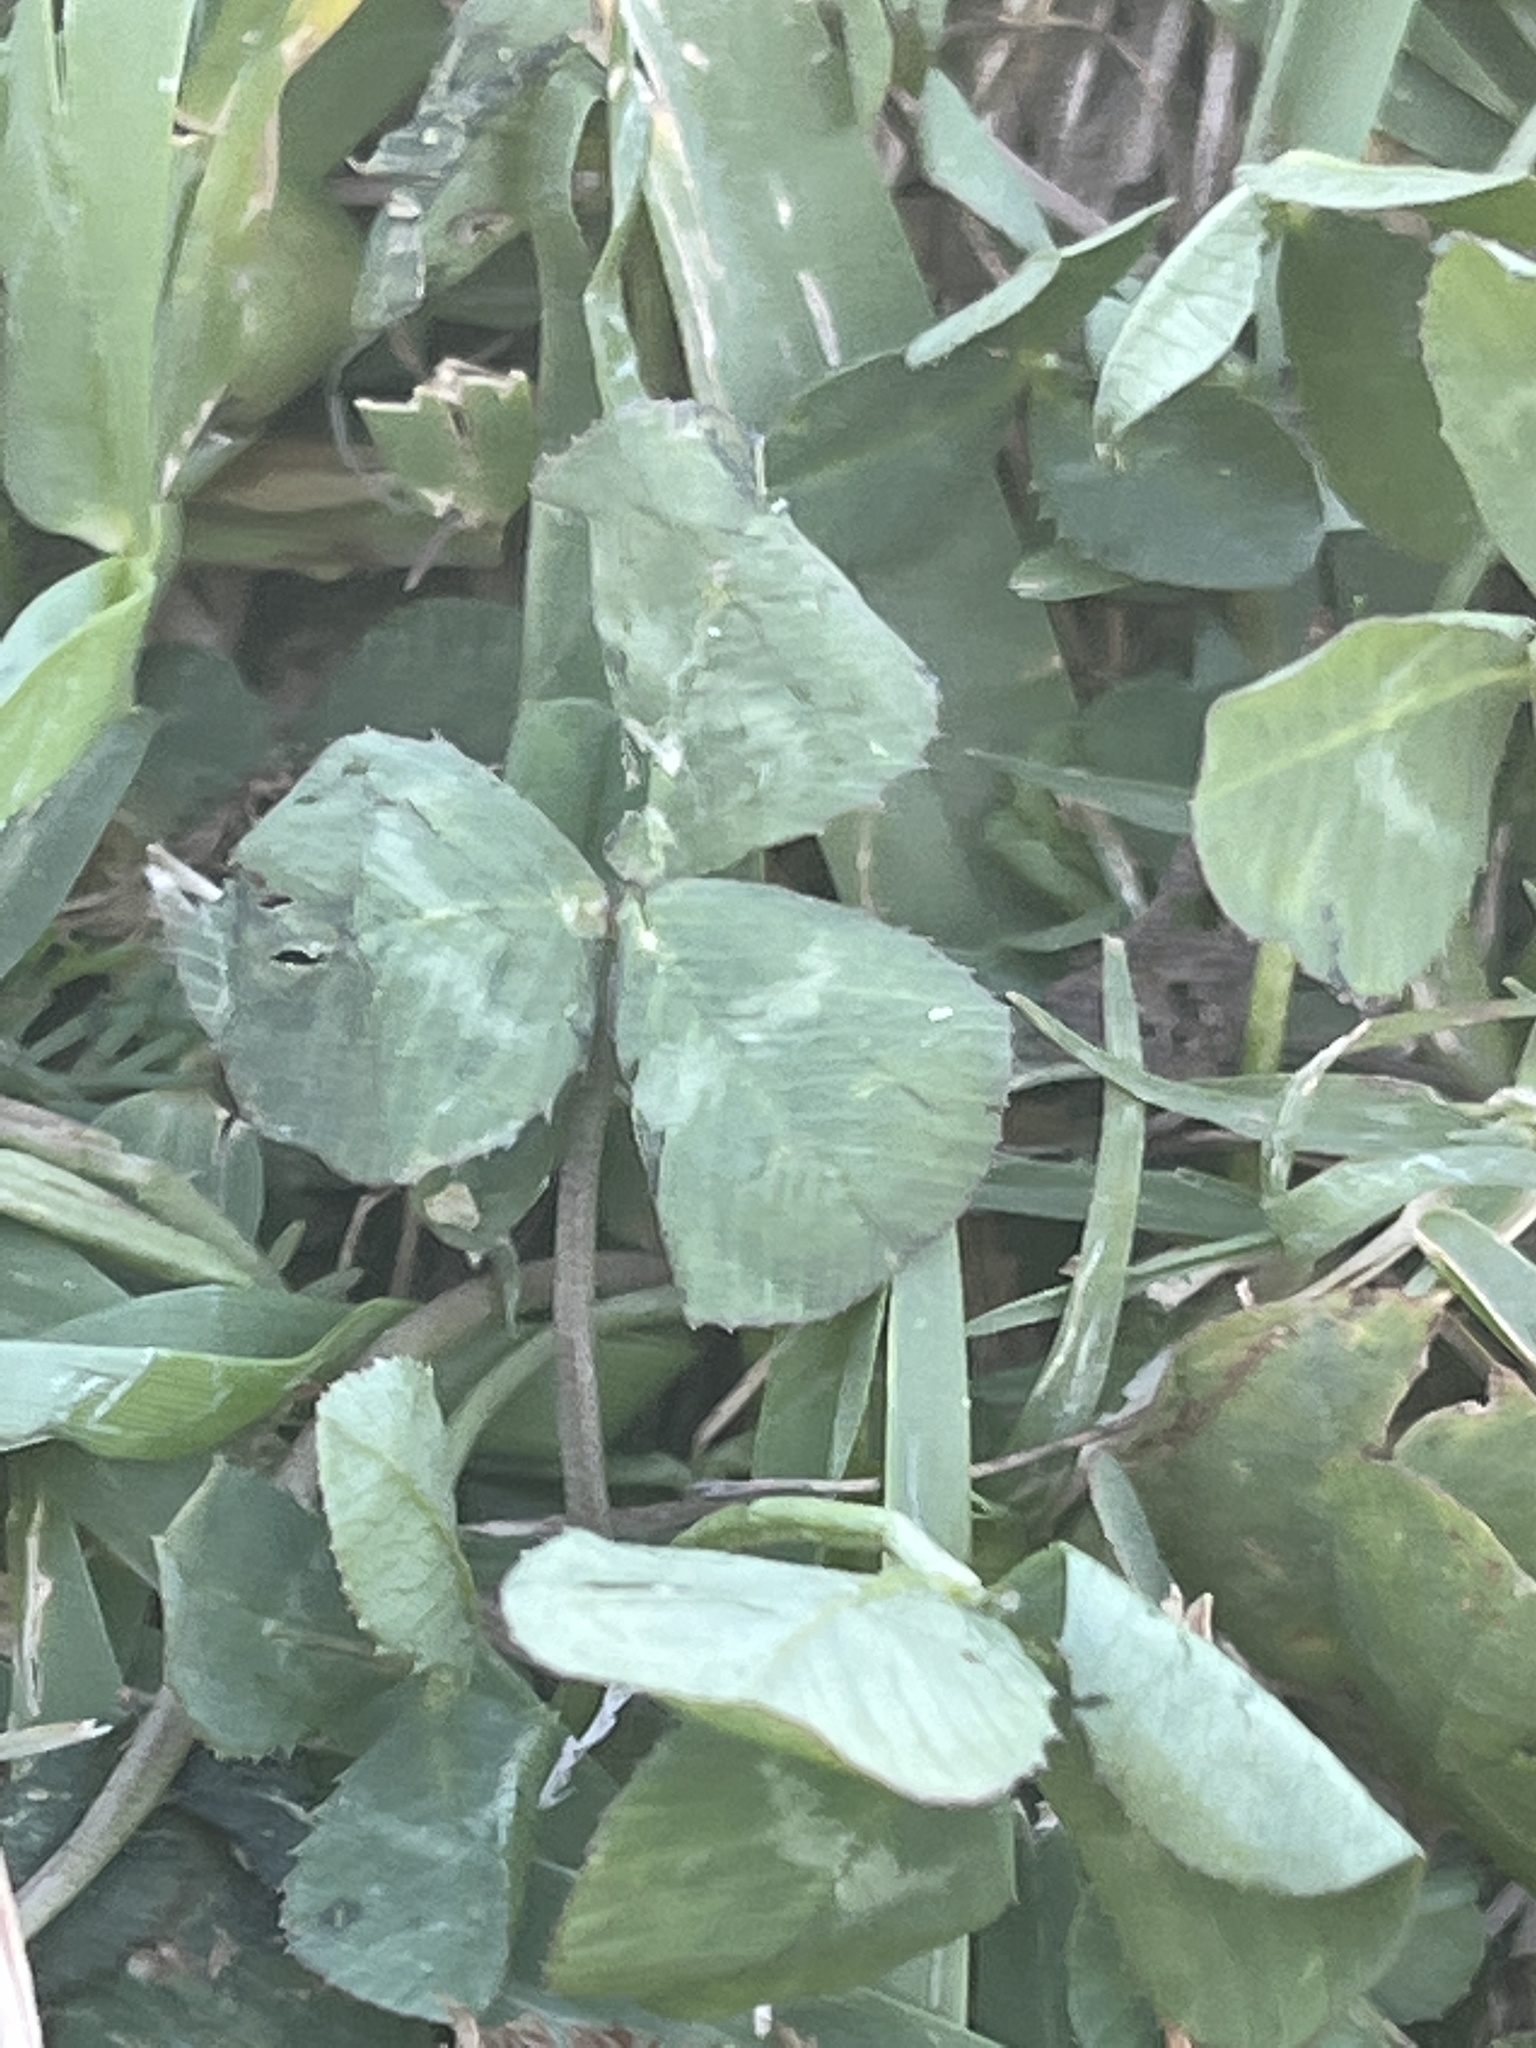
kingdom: Plantae
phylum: Tracheophyta
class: Magnoliopsida
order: Fabales
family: Fabaceae
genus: Trifolium
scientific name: Trifolium repens
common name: White clover
